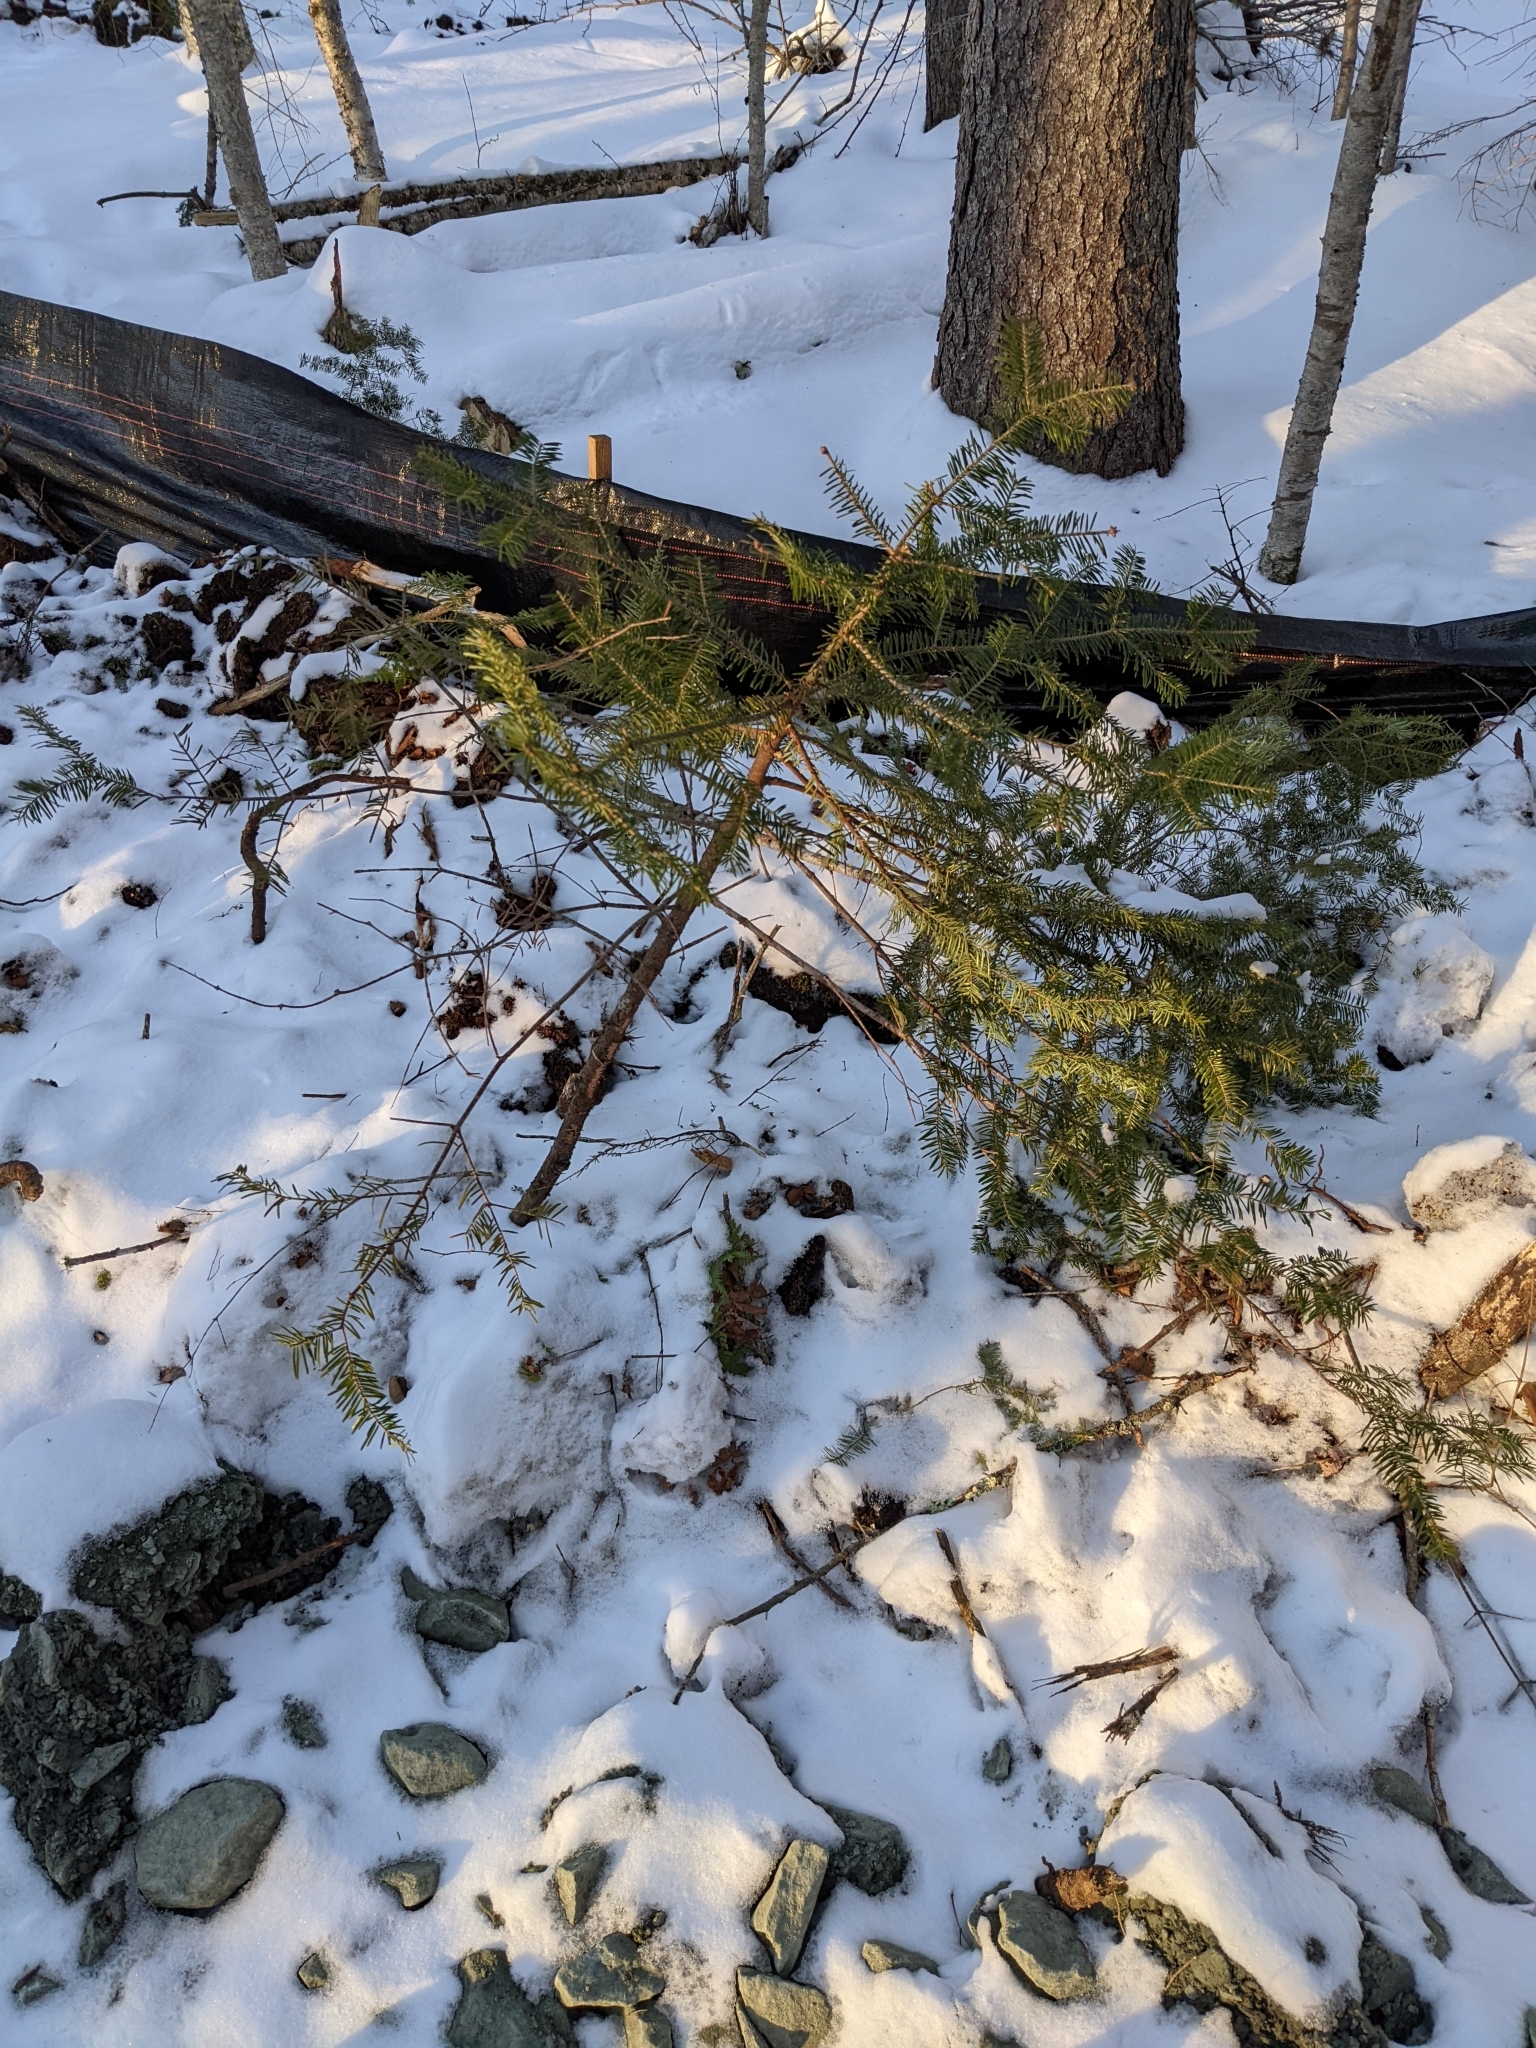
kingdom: Plantae
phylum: Tracheophyta
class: Pinopsida
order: Pinales
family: Pinaceae
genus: Abies
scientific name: Abies balsamea
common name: Balsam fir
